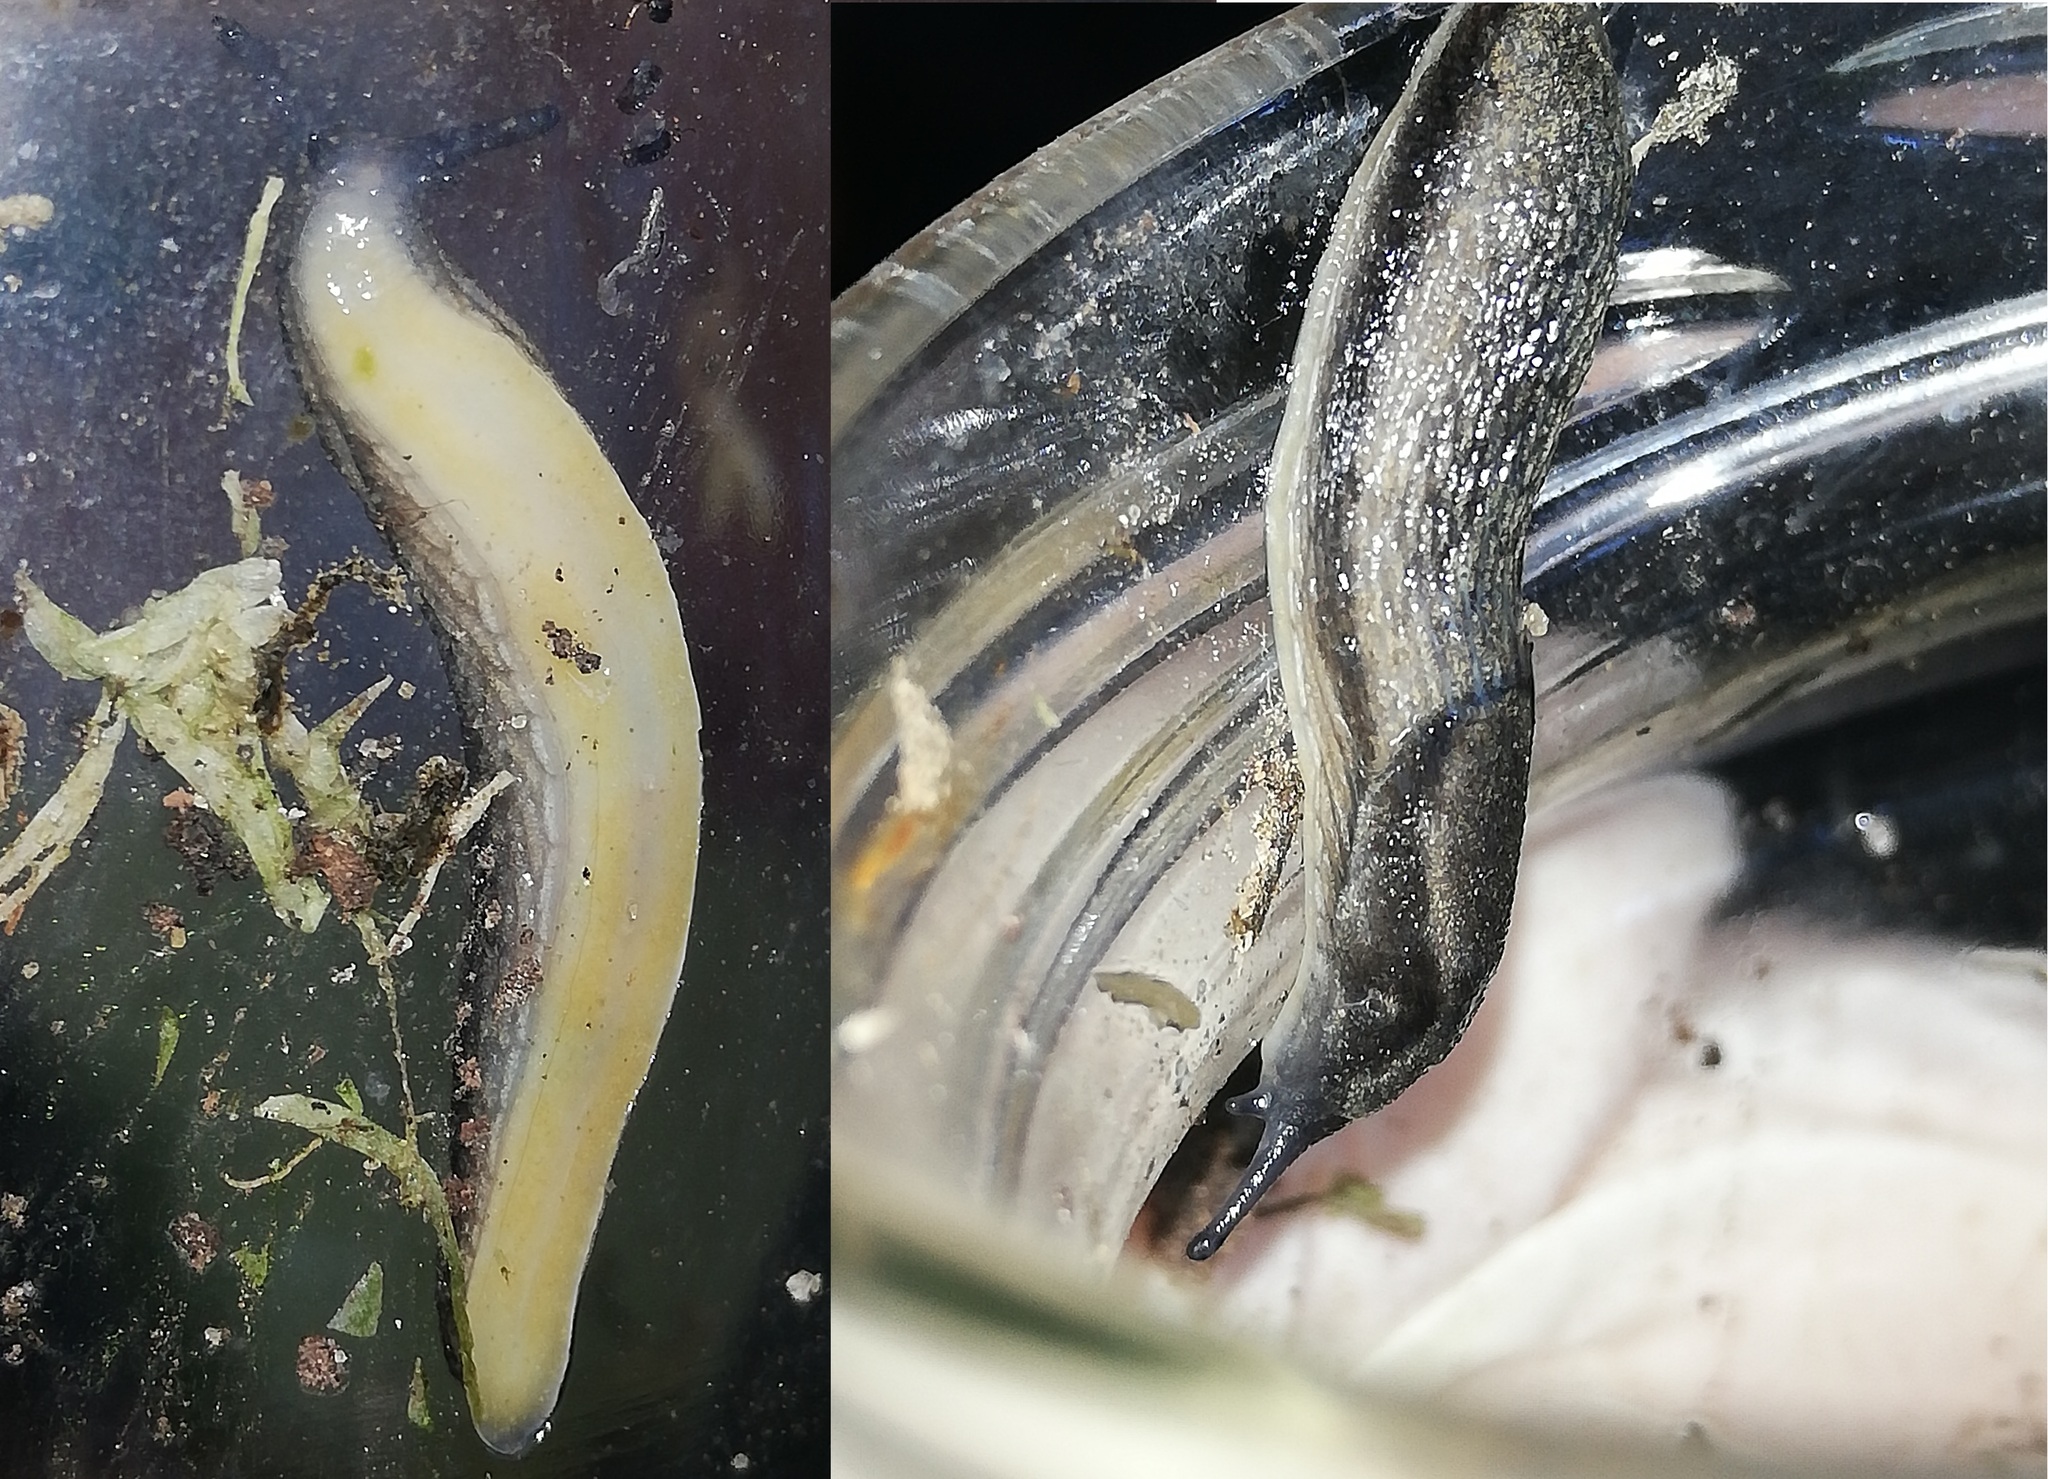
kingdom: Animalia
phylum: Mollusca
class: Gastropoda
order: Stylommatophora
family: Arionidae
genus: Arion
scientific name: Arion distinctus
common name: Darkface arion
